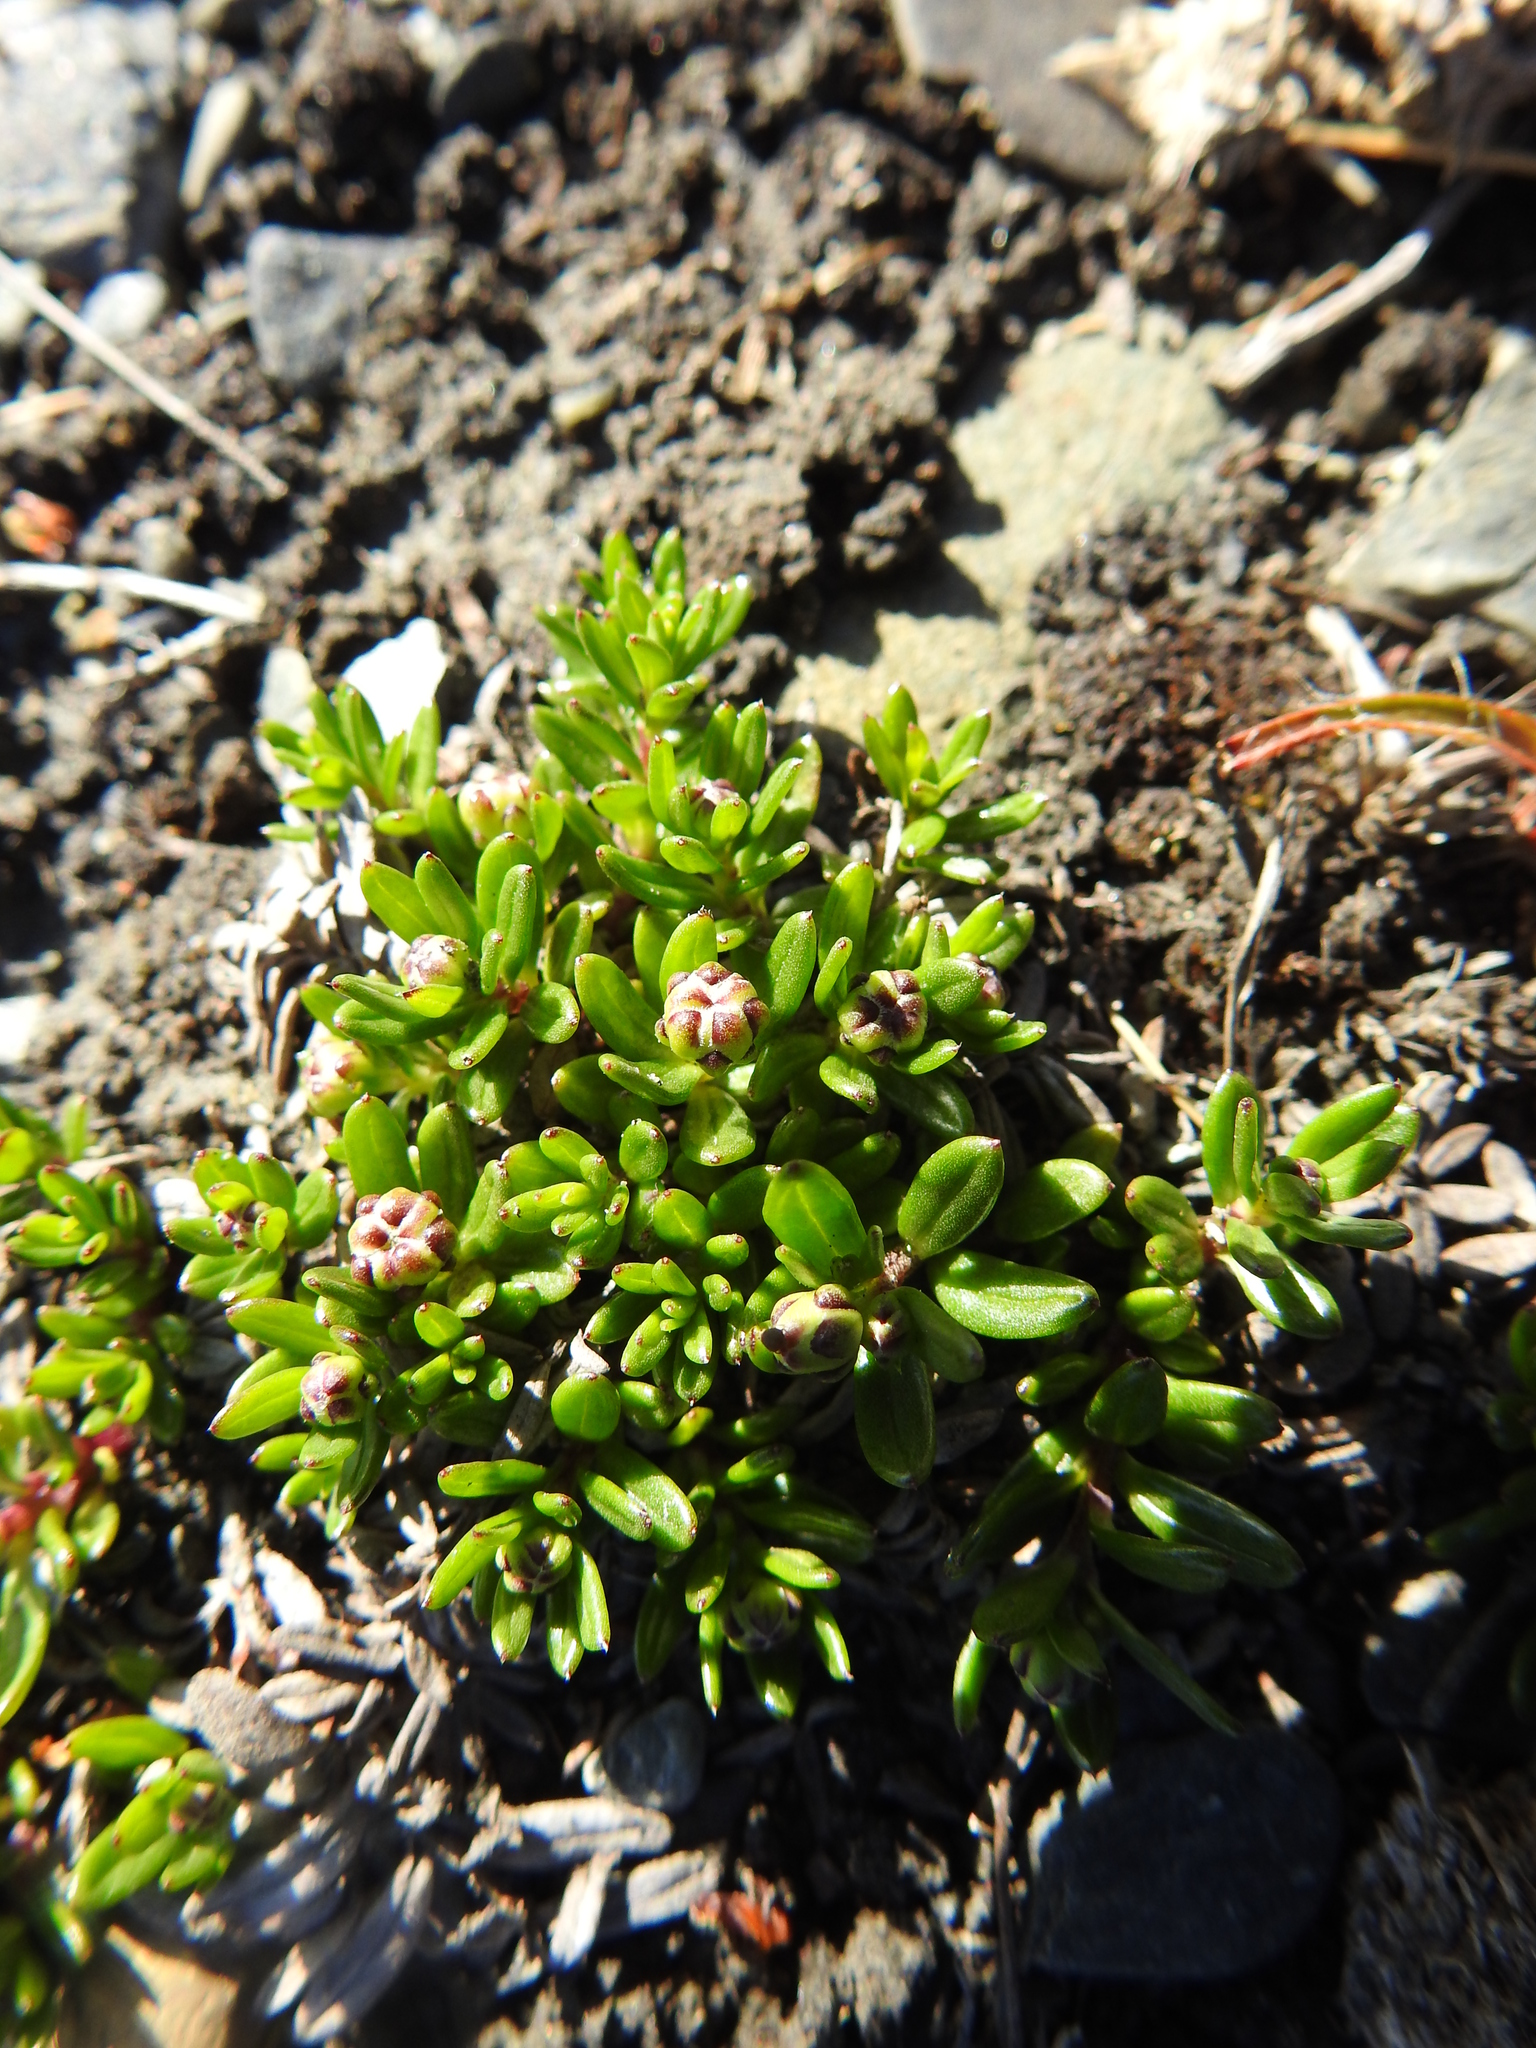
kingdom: Plantae
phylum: Tracheophyta
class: Magnoliopsida
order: Ericales
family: Ericaceae
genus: Empetrum
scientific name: Empetrum rubrum
